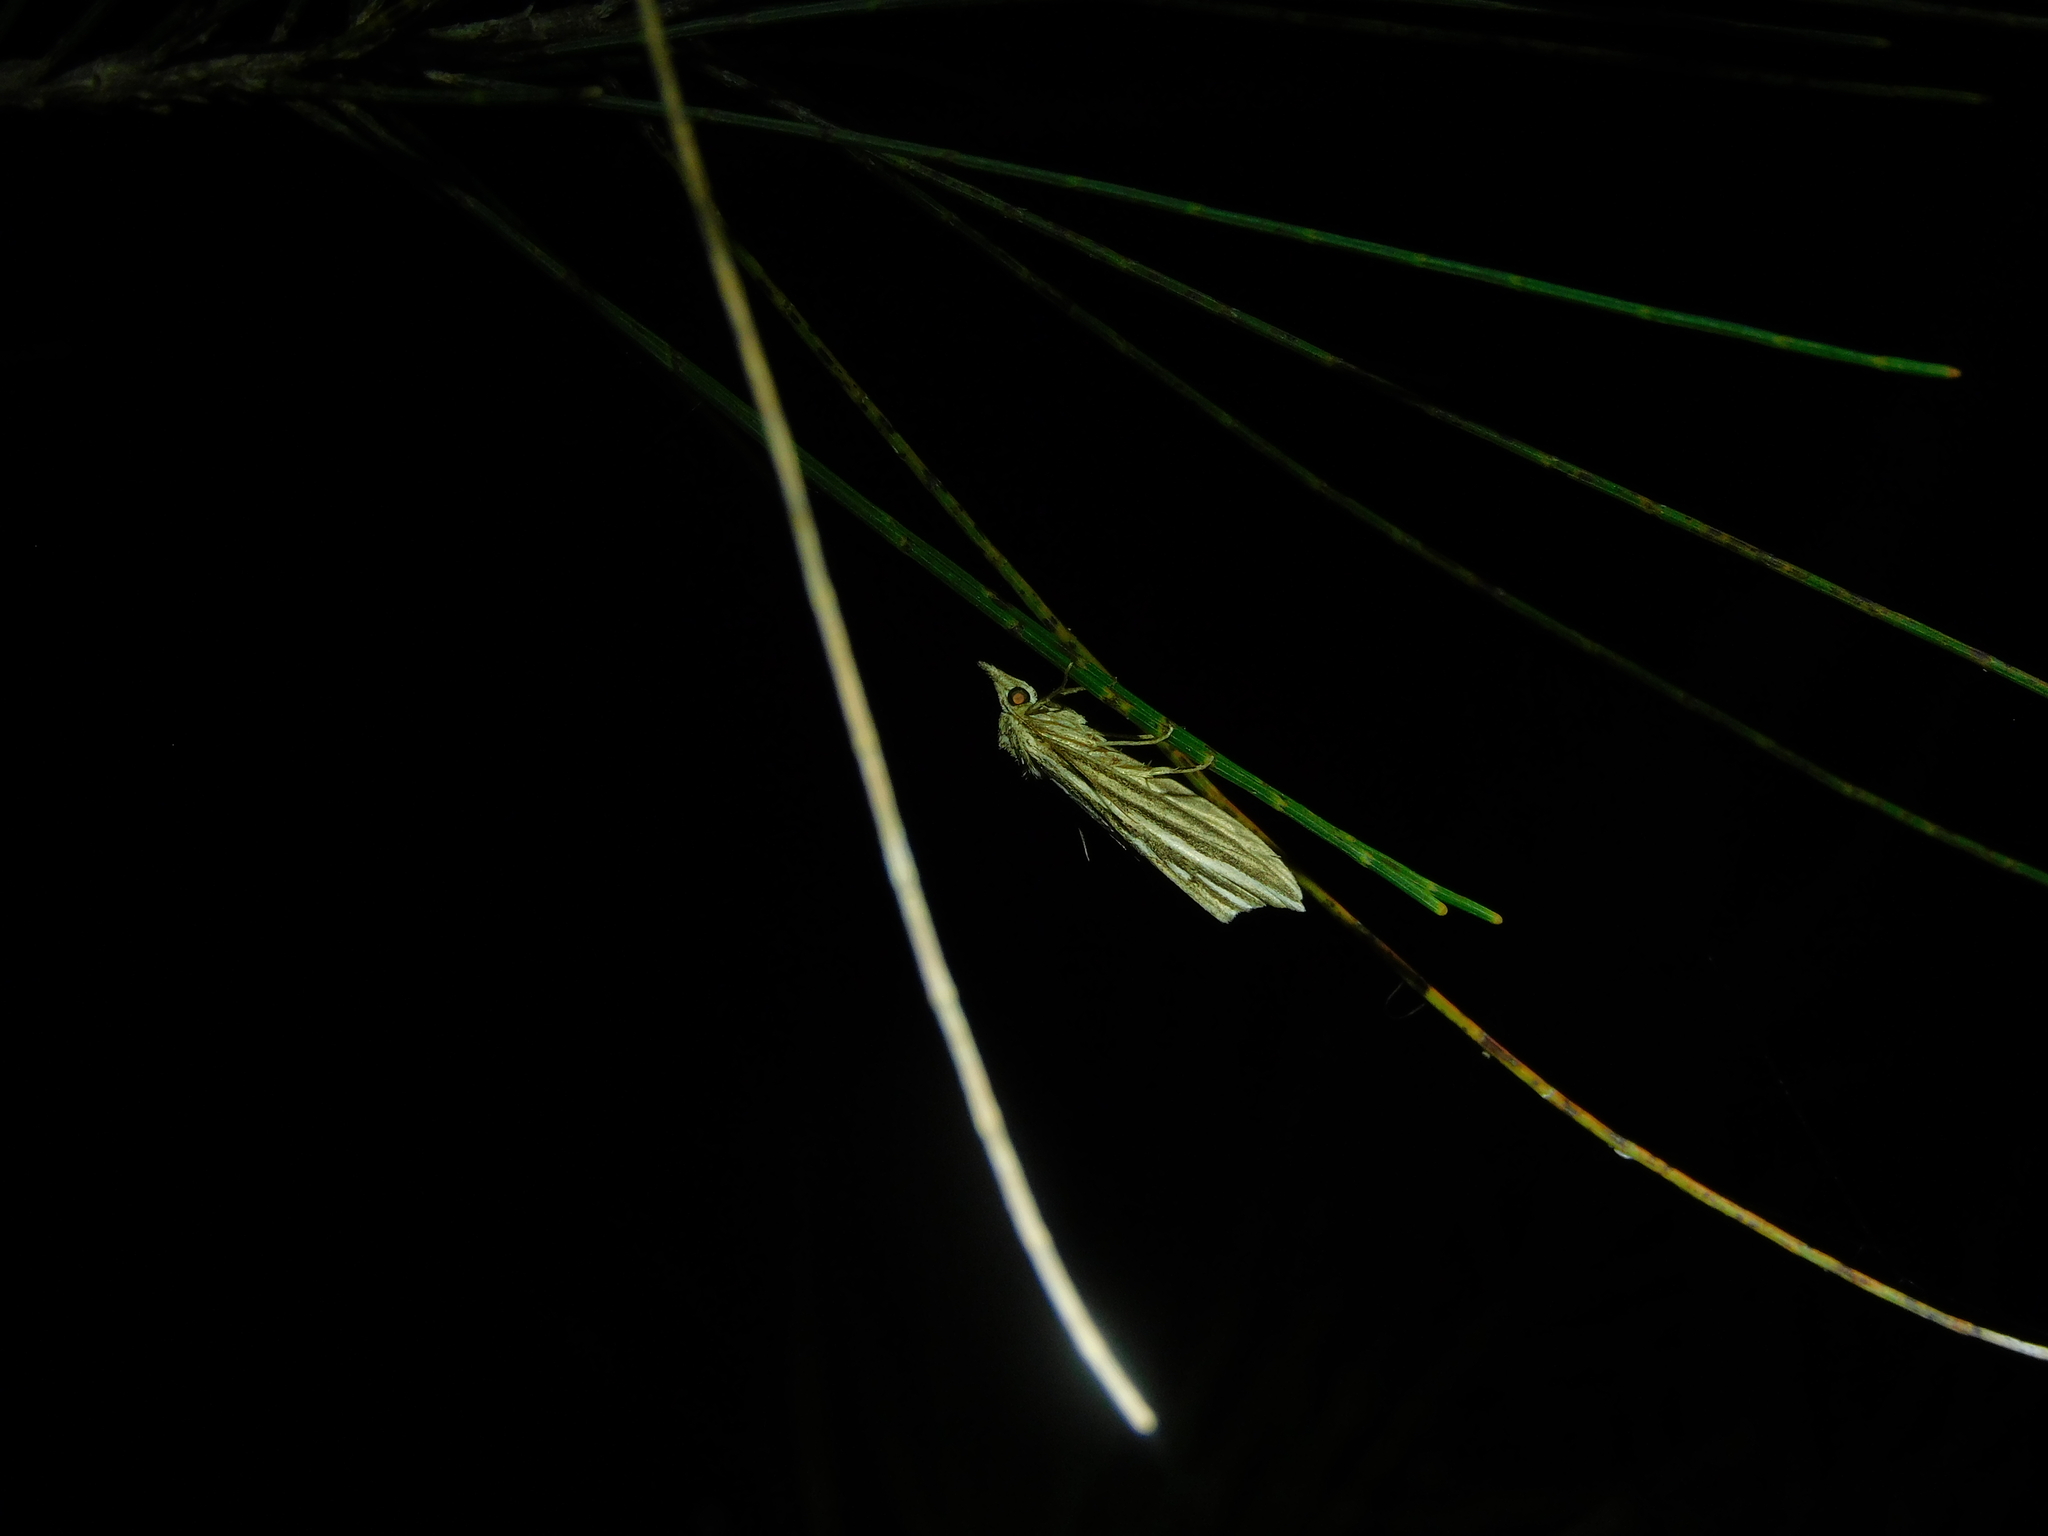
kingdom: Animalia
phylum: Arthropoda
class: Insecta
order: Lepidoptera
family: Erebidae
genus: Meyrickella
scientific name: Meyrickella ruptellus
